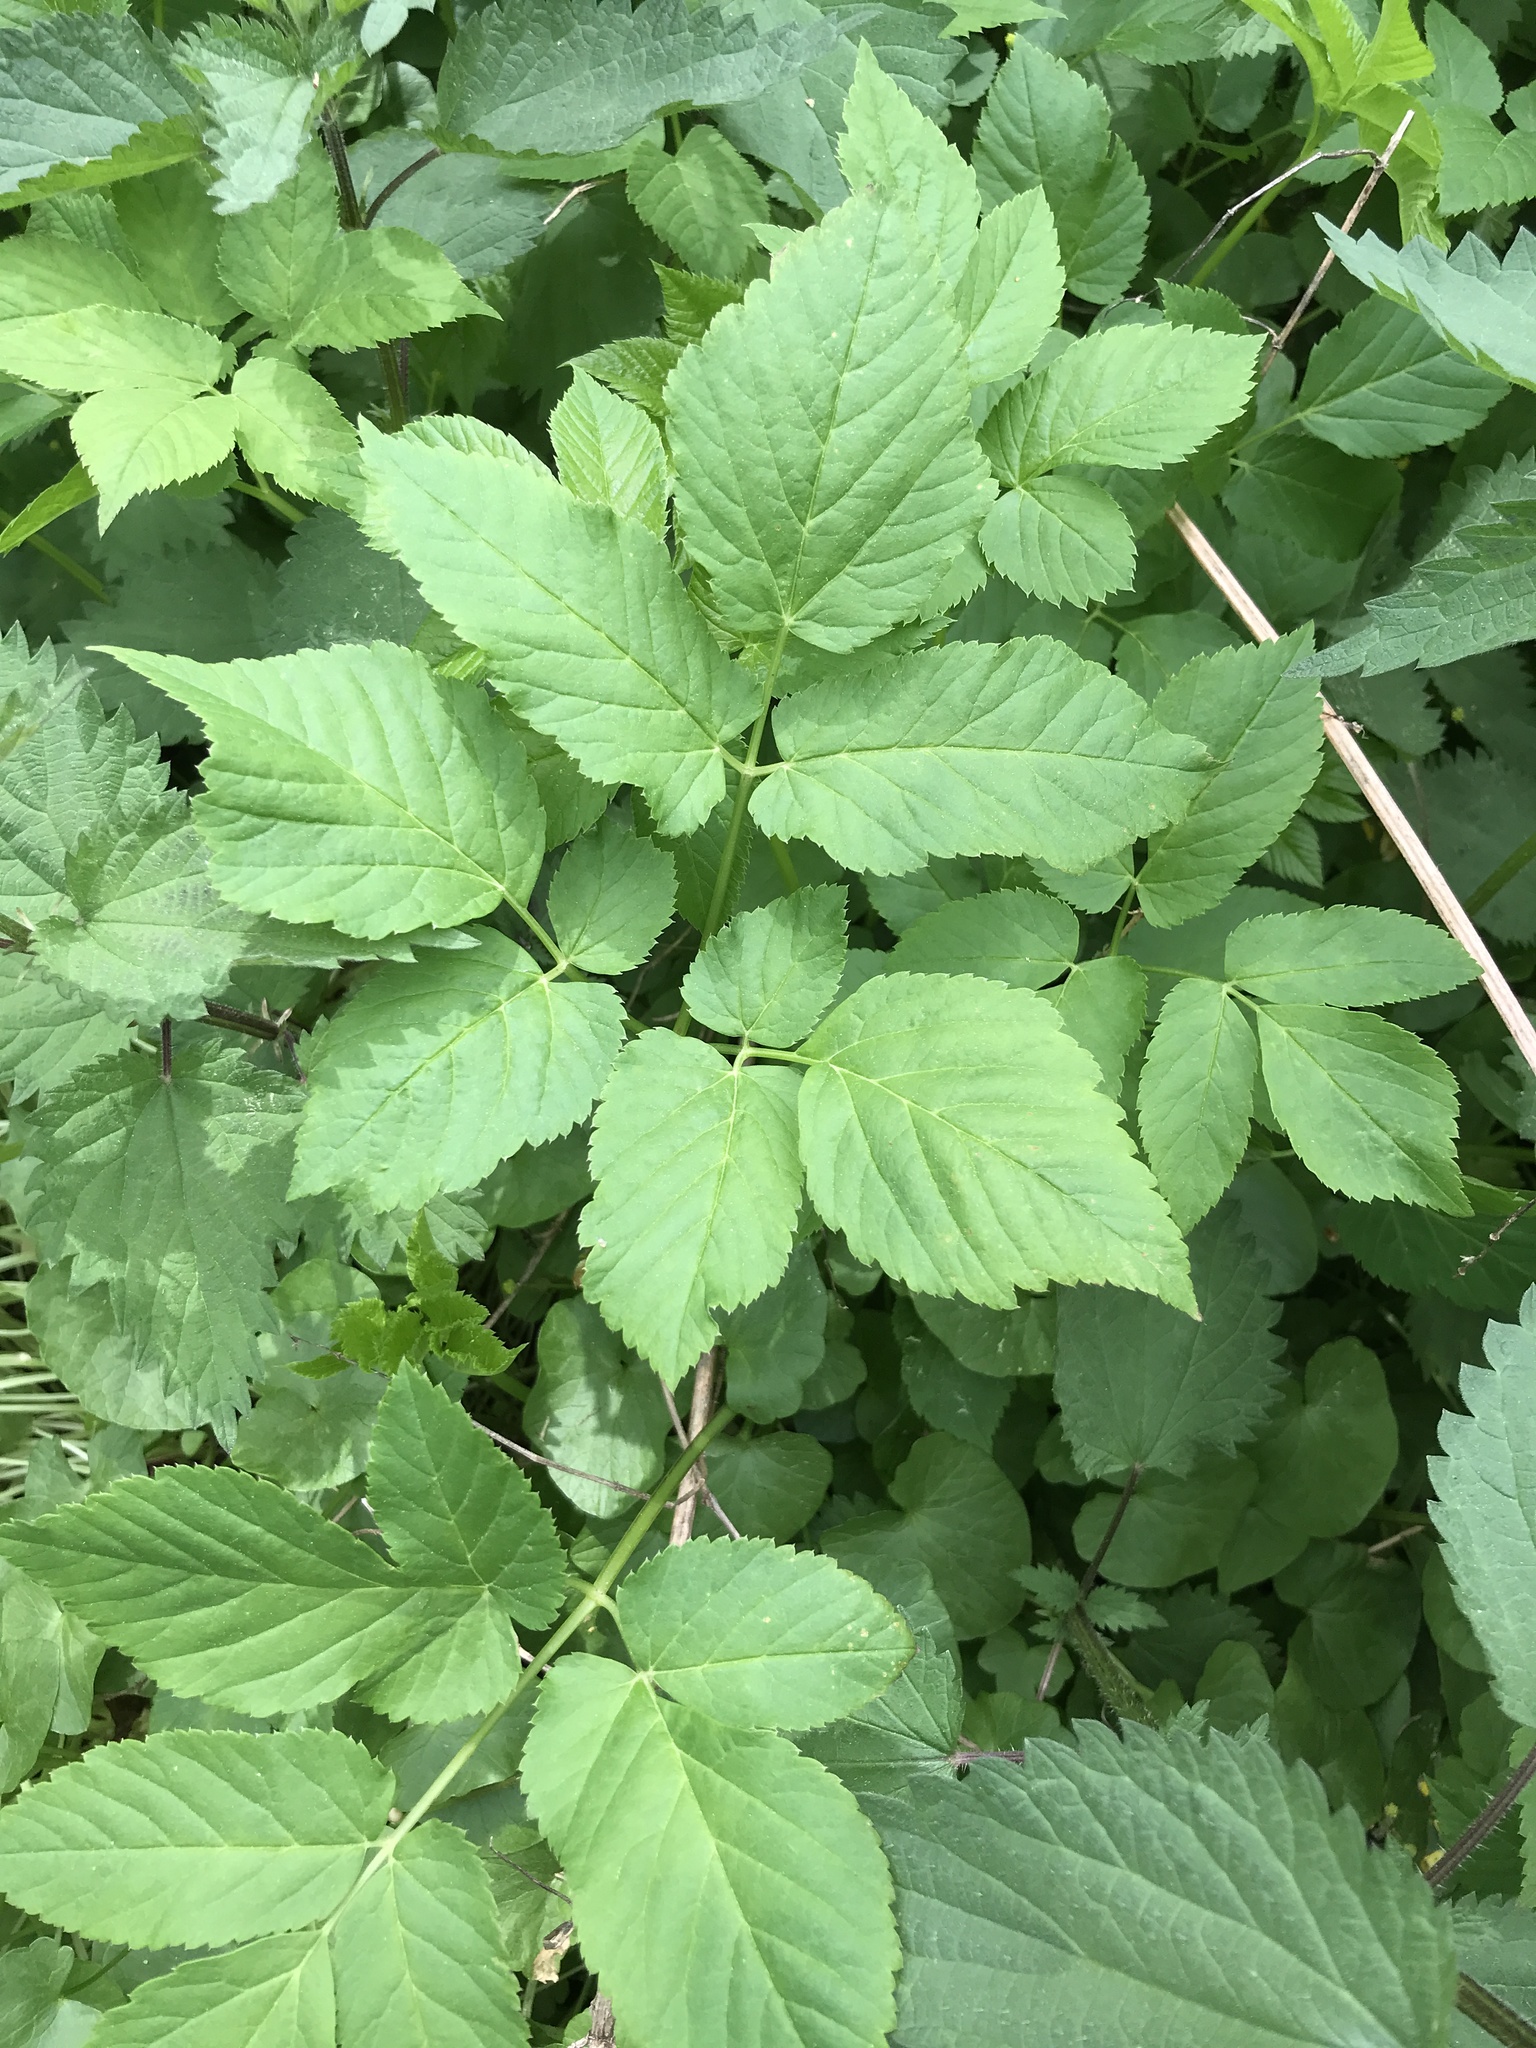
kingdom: Plantae
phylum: Tracheophyta
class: Magnoliopsida
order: Apiales
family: Apiaceae
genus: Aegopodium
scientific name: Aegopodium podagraria
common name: Ground-elder
